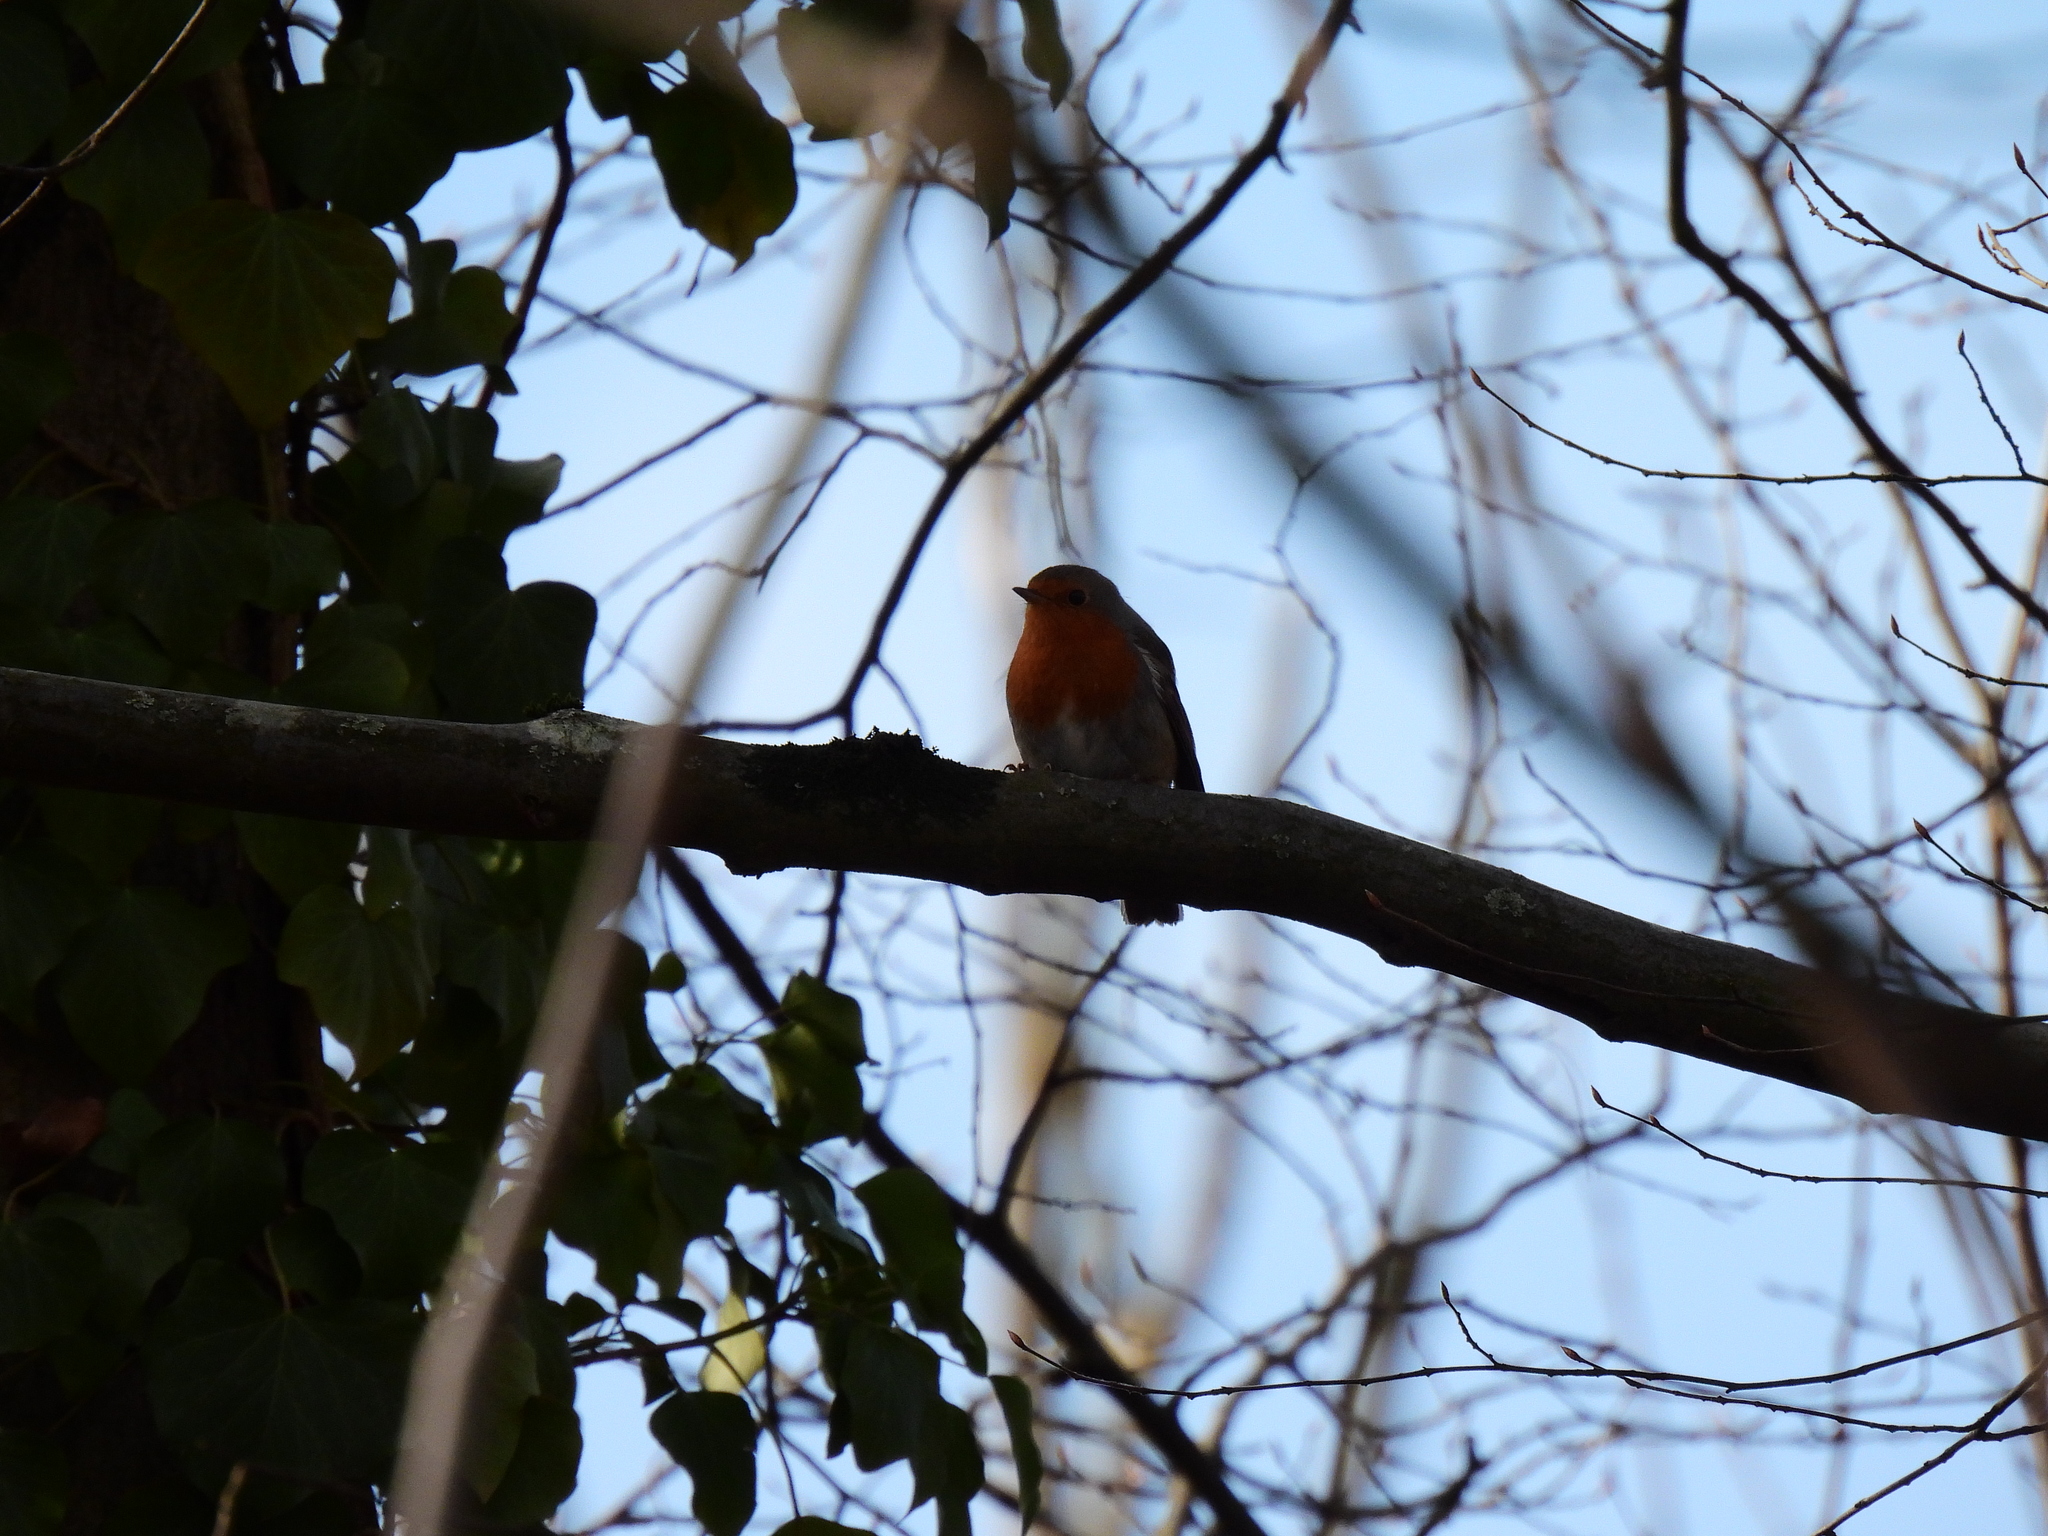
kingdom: Animalia
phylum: Chordata
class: Aves
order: Passeriformes
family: Muscicapidae
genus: Erithacus
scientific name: Erithacus rubecula
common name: European robin
